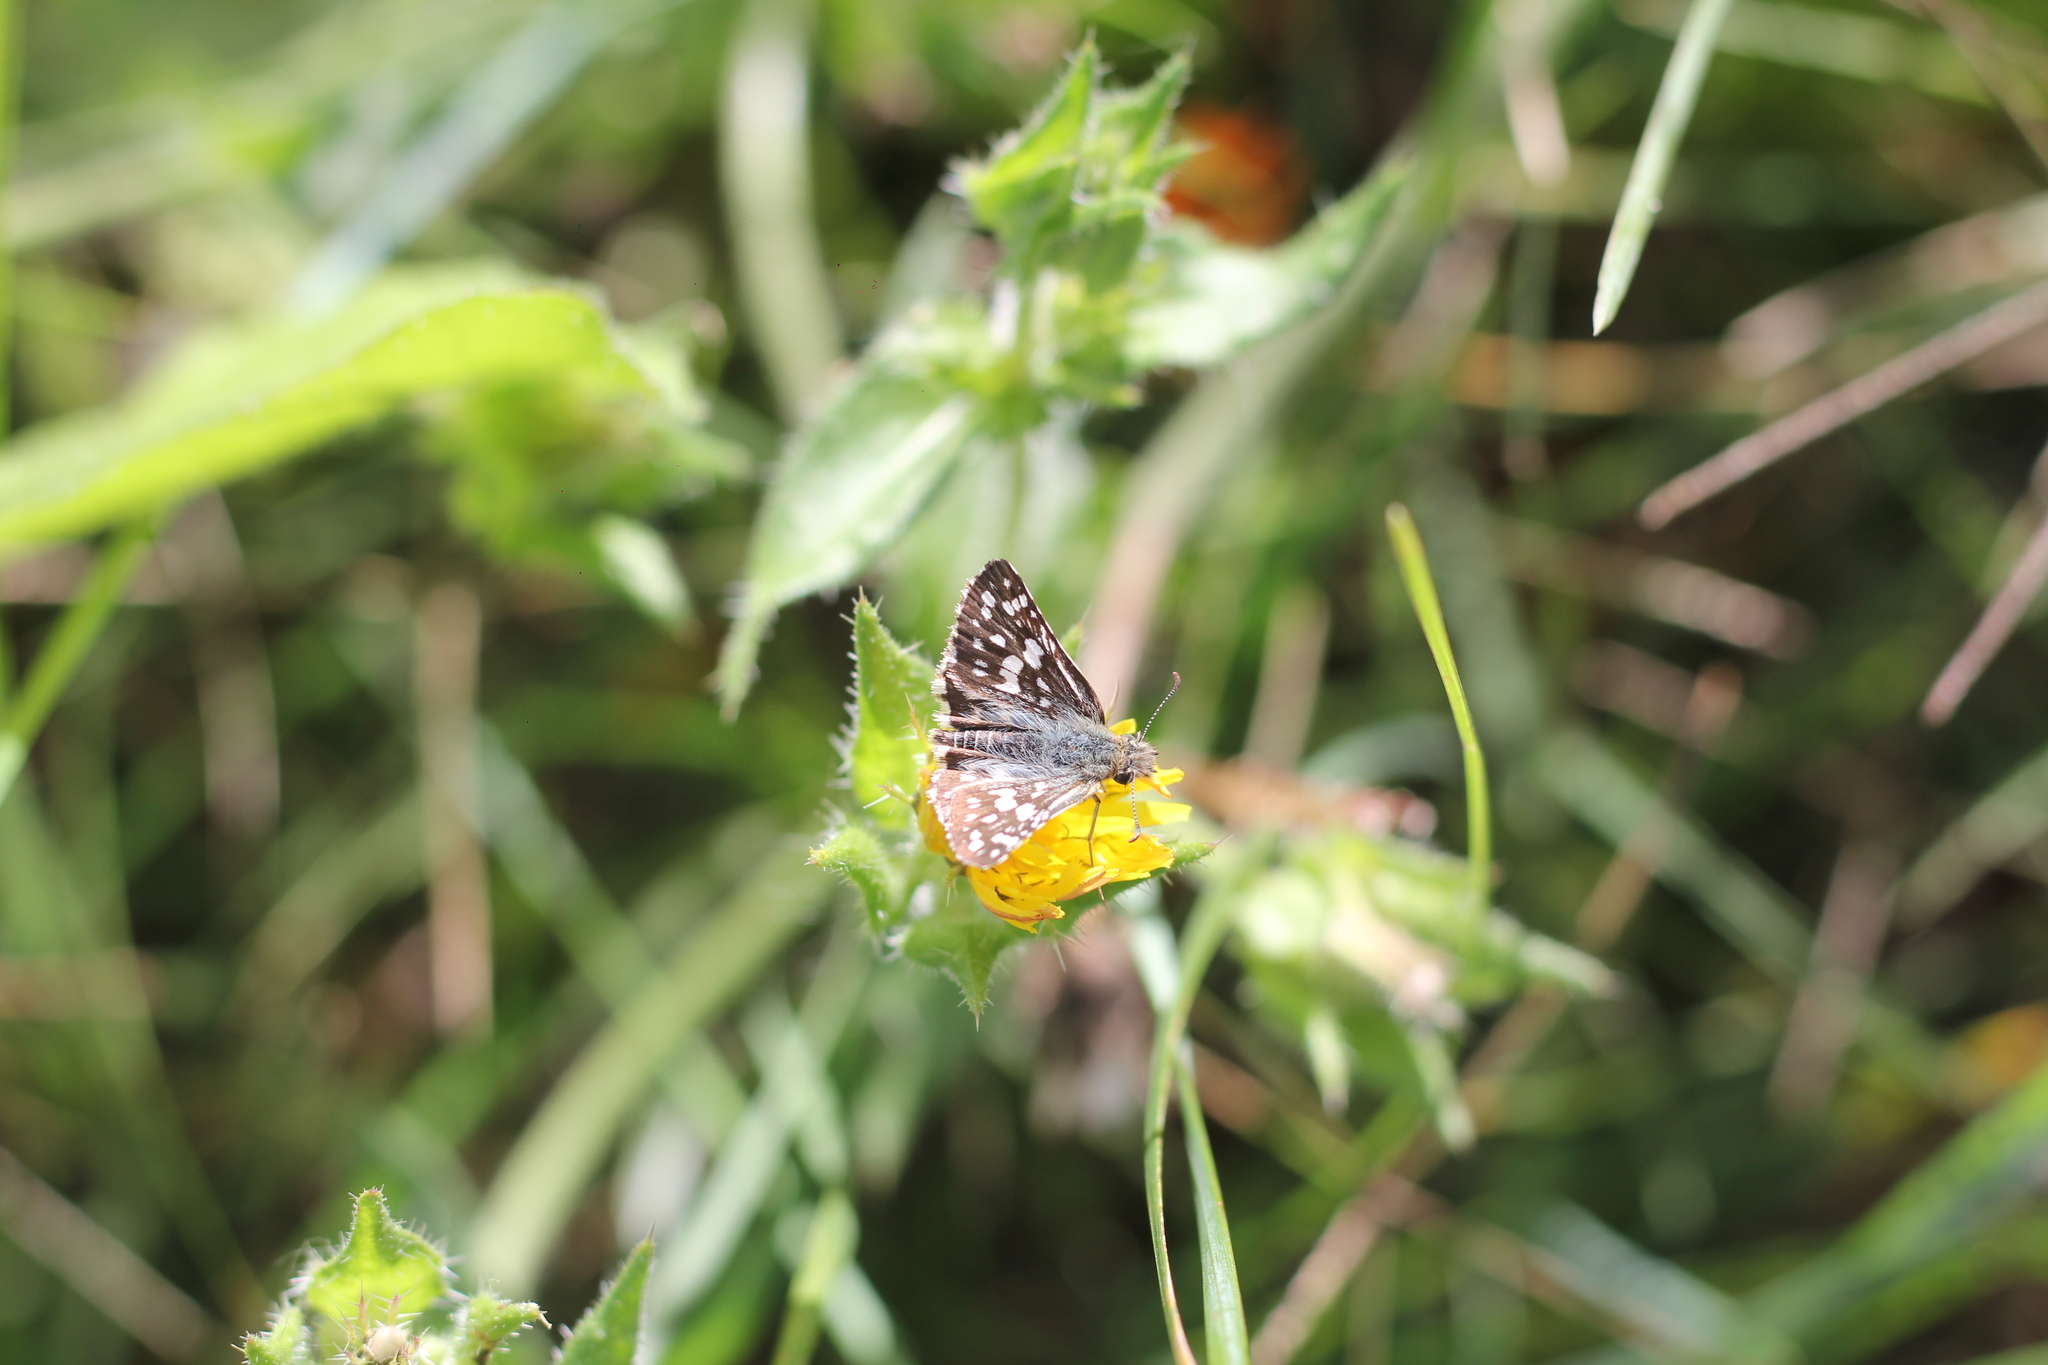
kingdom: Animalia
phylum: Arthropoda
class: Insecta
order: Lepidoptera
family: Hesperiidae
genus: Burnsius
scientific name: Burnsius orcynoides
